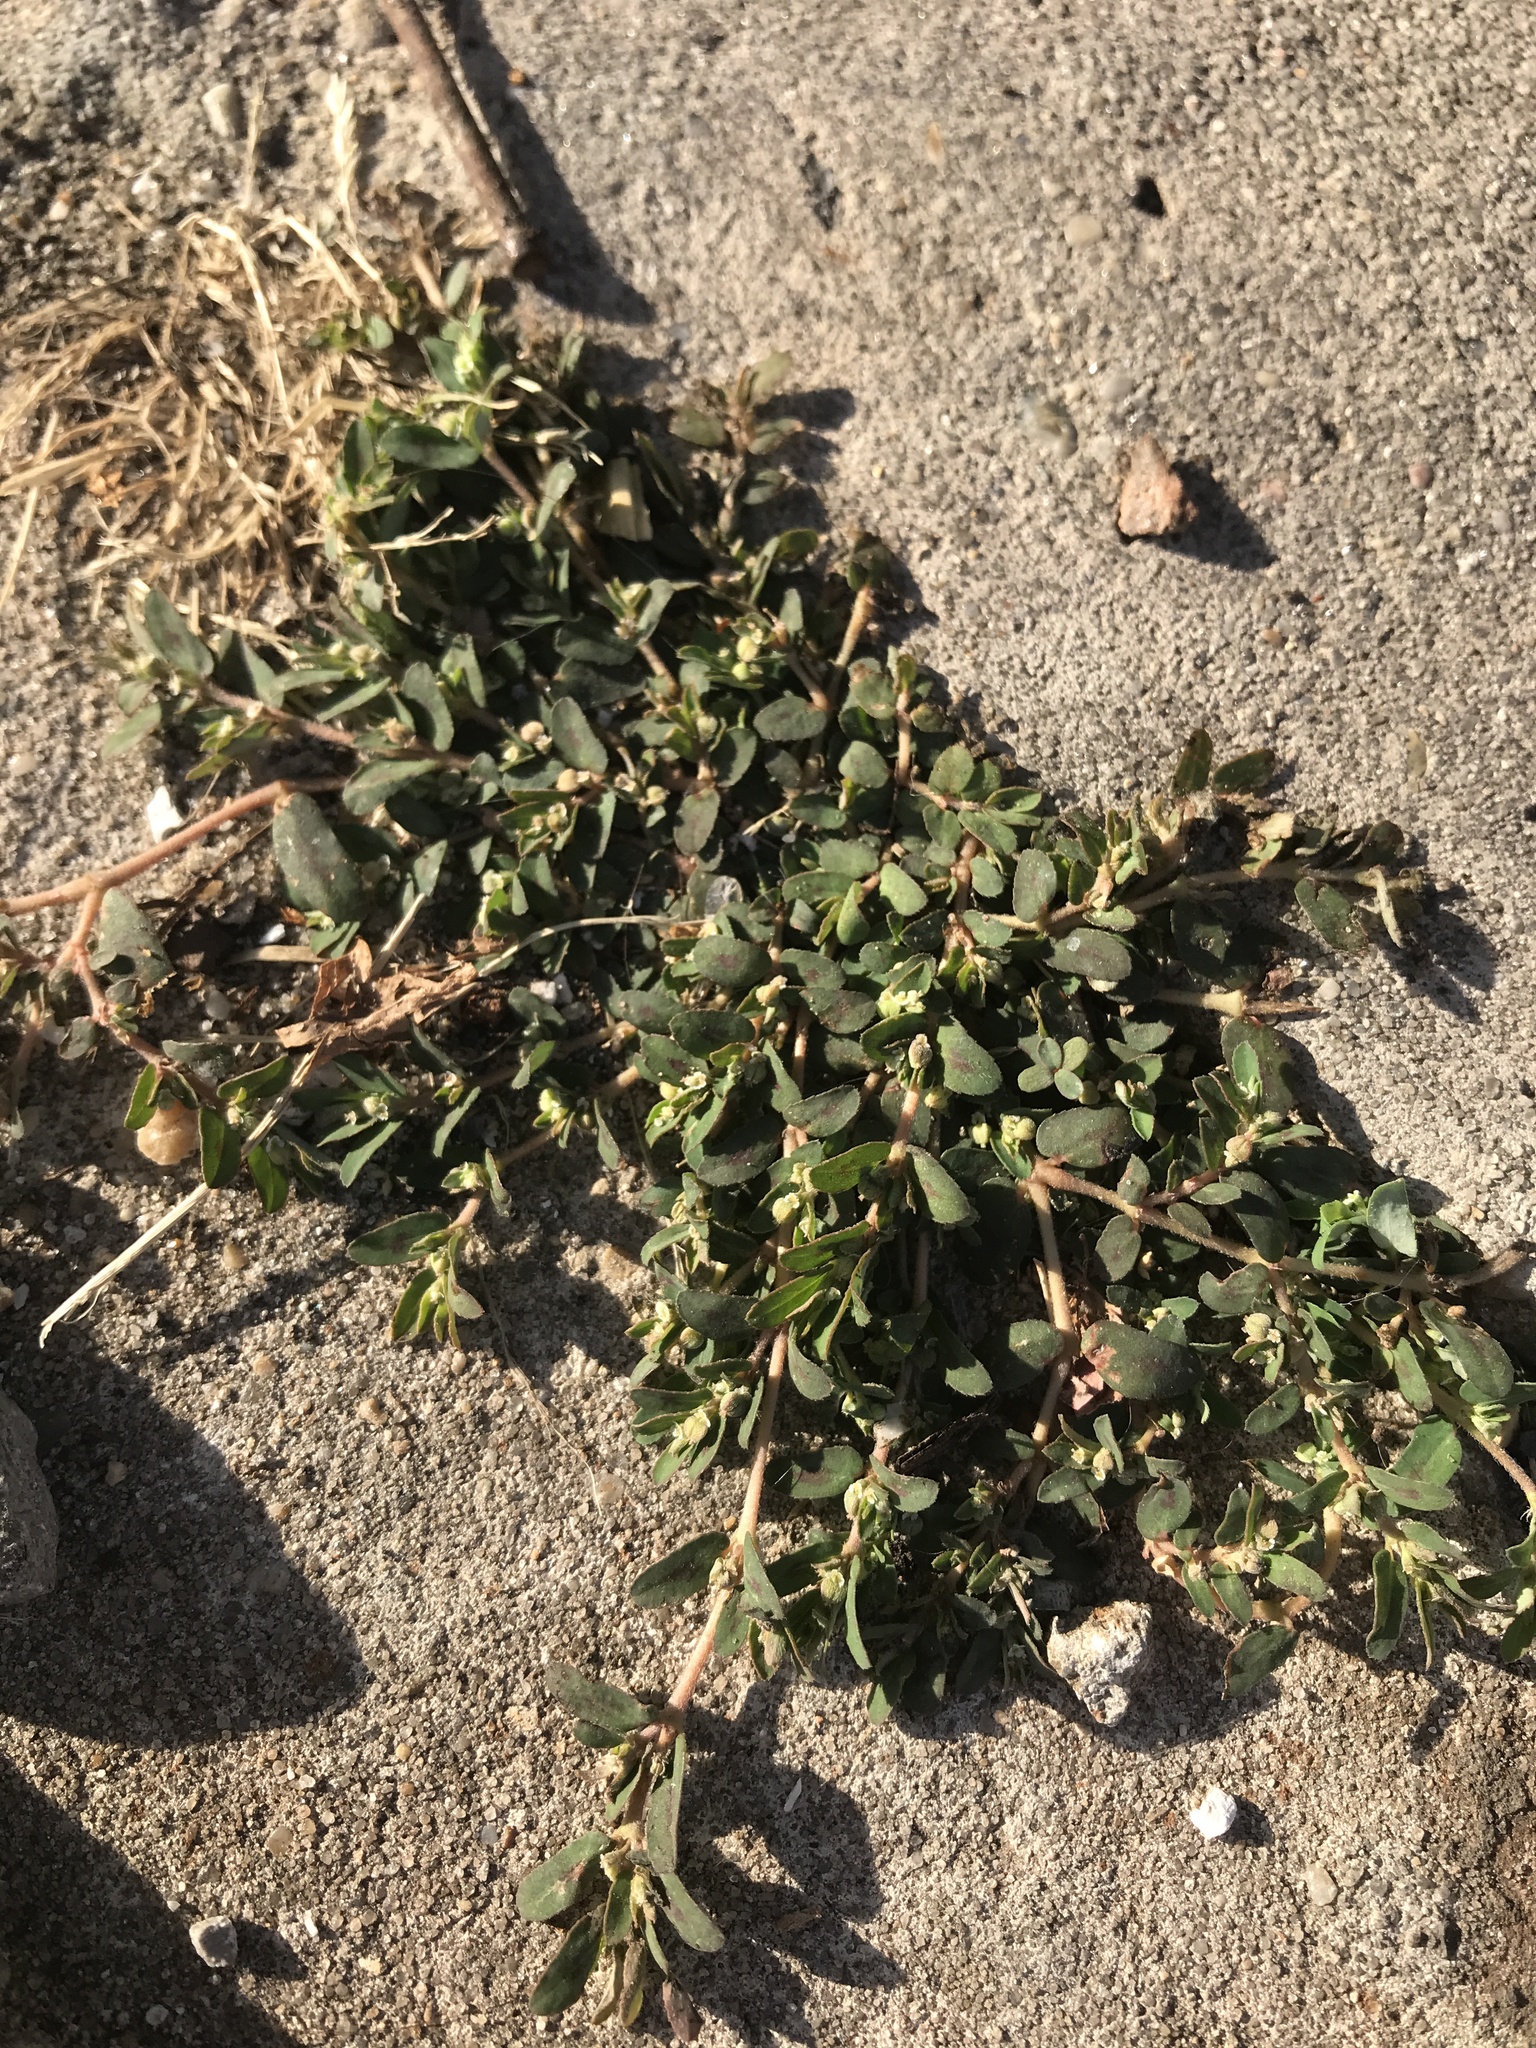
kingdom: Plantae
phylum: Tracheophyta
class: Magnoliopsida
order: Malpighiales
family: Euphorbiaceae
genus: Euphorbia
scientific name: Euphorbia maculata
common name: Spotted spurge
